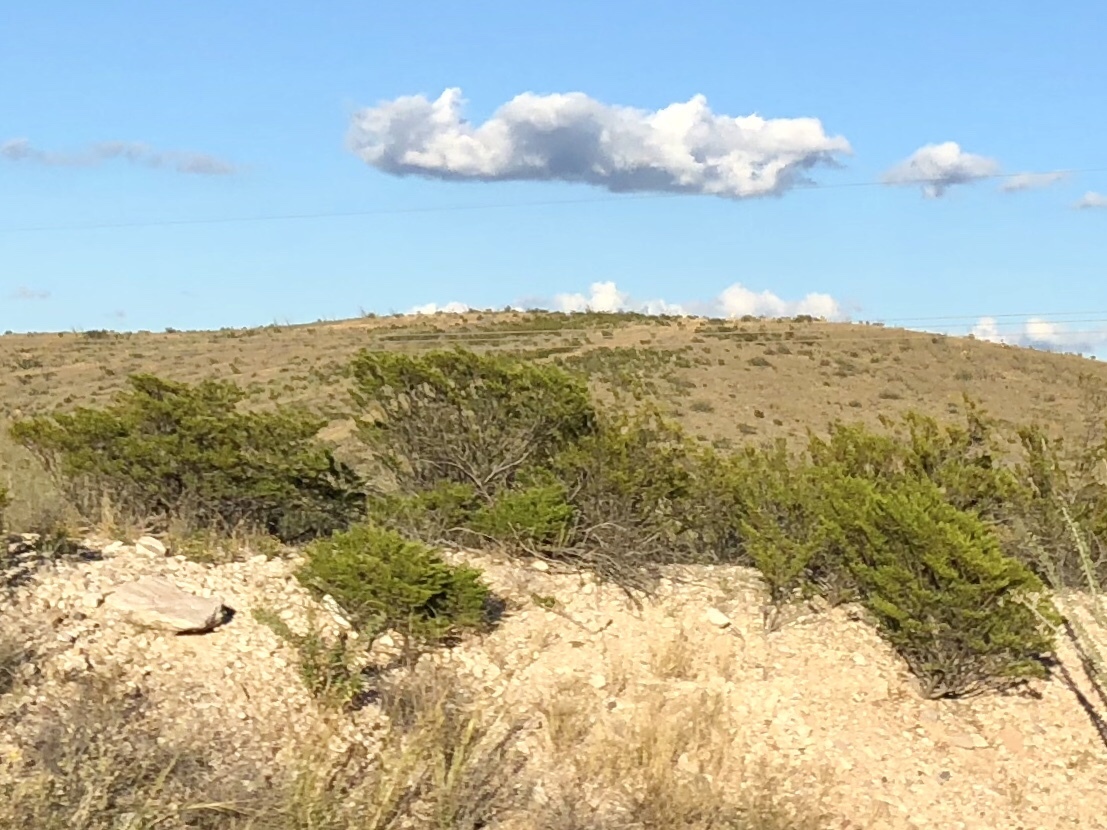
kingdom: Plantae
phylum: Tracheophyta
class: Magnoliopsida
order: Zygophyllales
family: Zygophyllaceae
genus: Larrea
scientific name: Larrea tridentata
